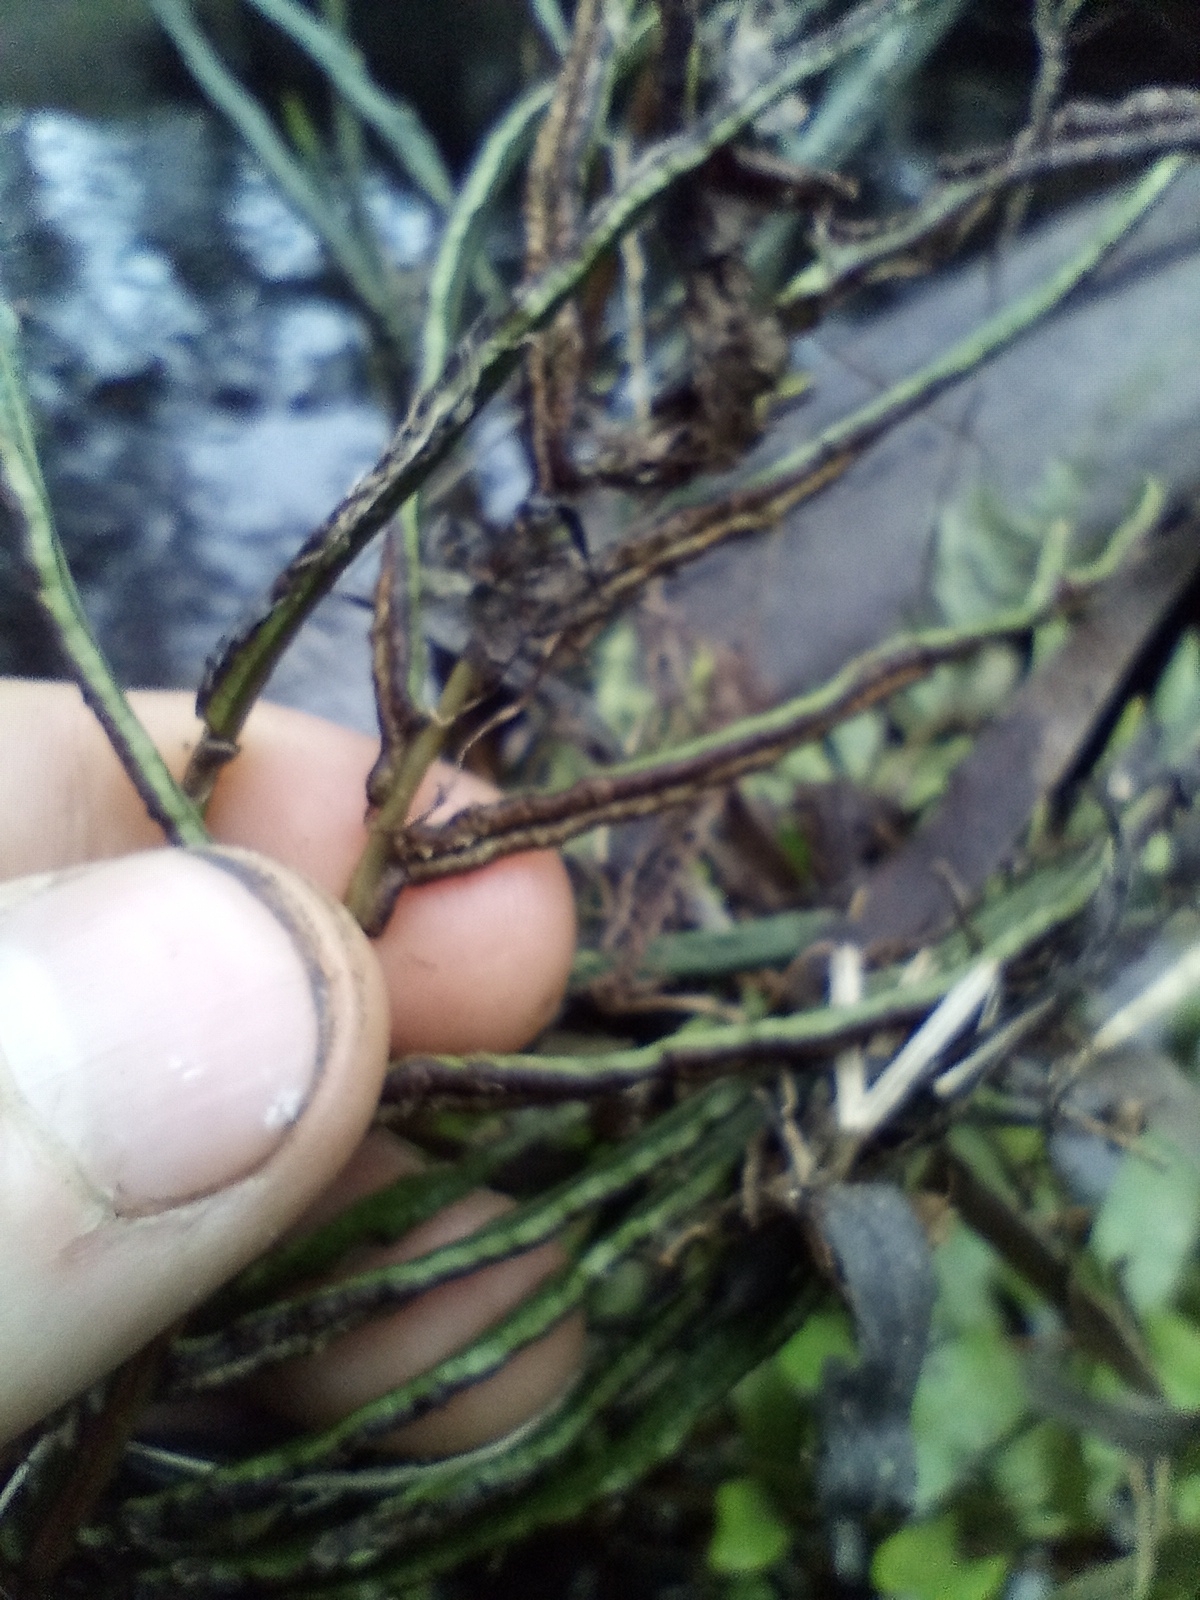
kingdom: Plantae
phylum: Tracheophyta
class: Polypodiopsida
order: Polypodiales
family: Blechnaceae
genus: Parablechnum
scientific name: Parablechnum minus
